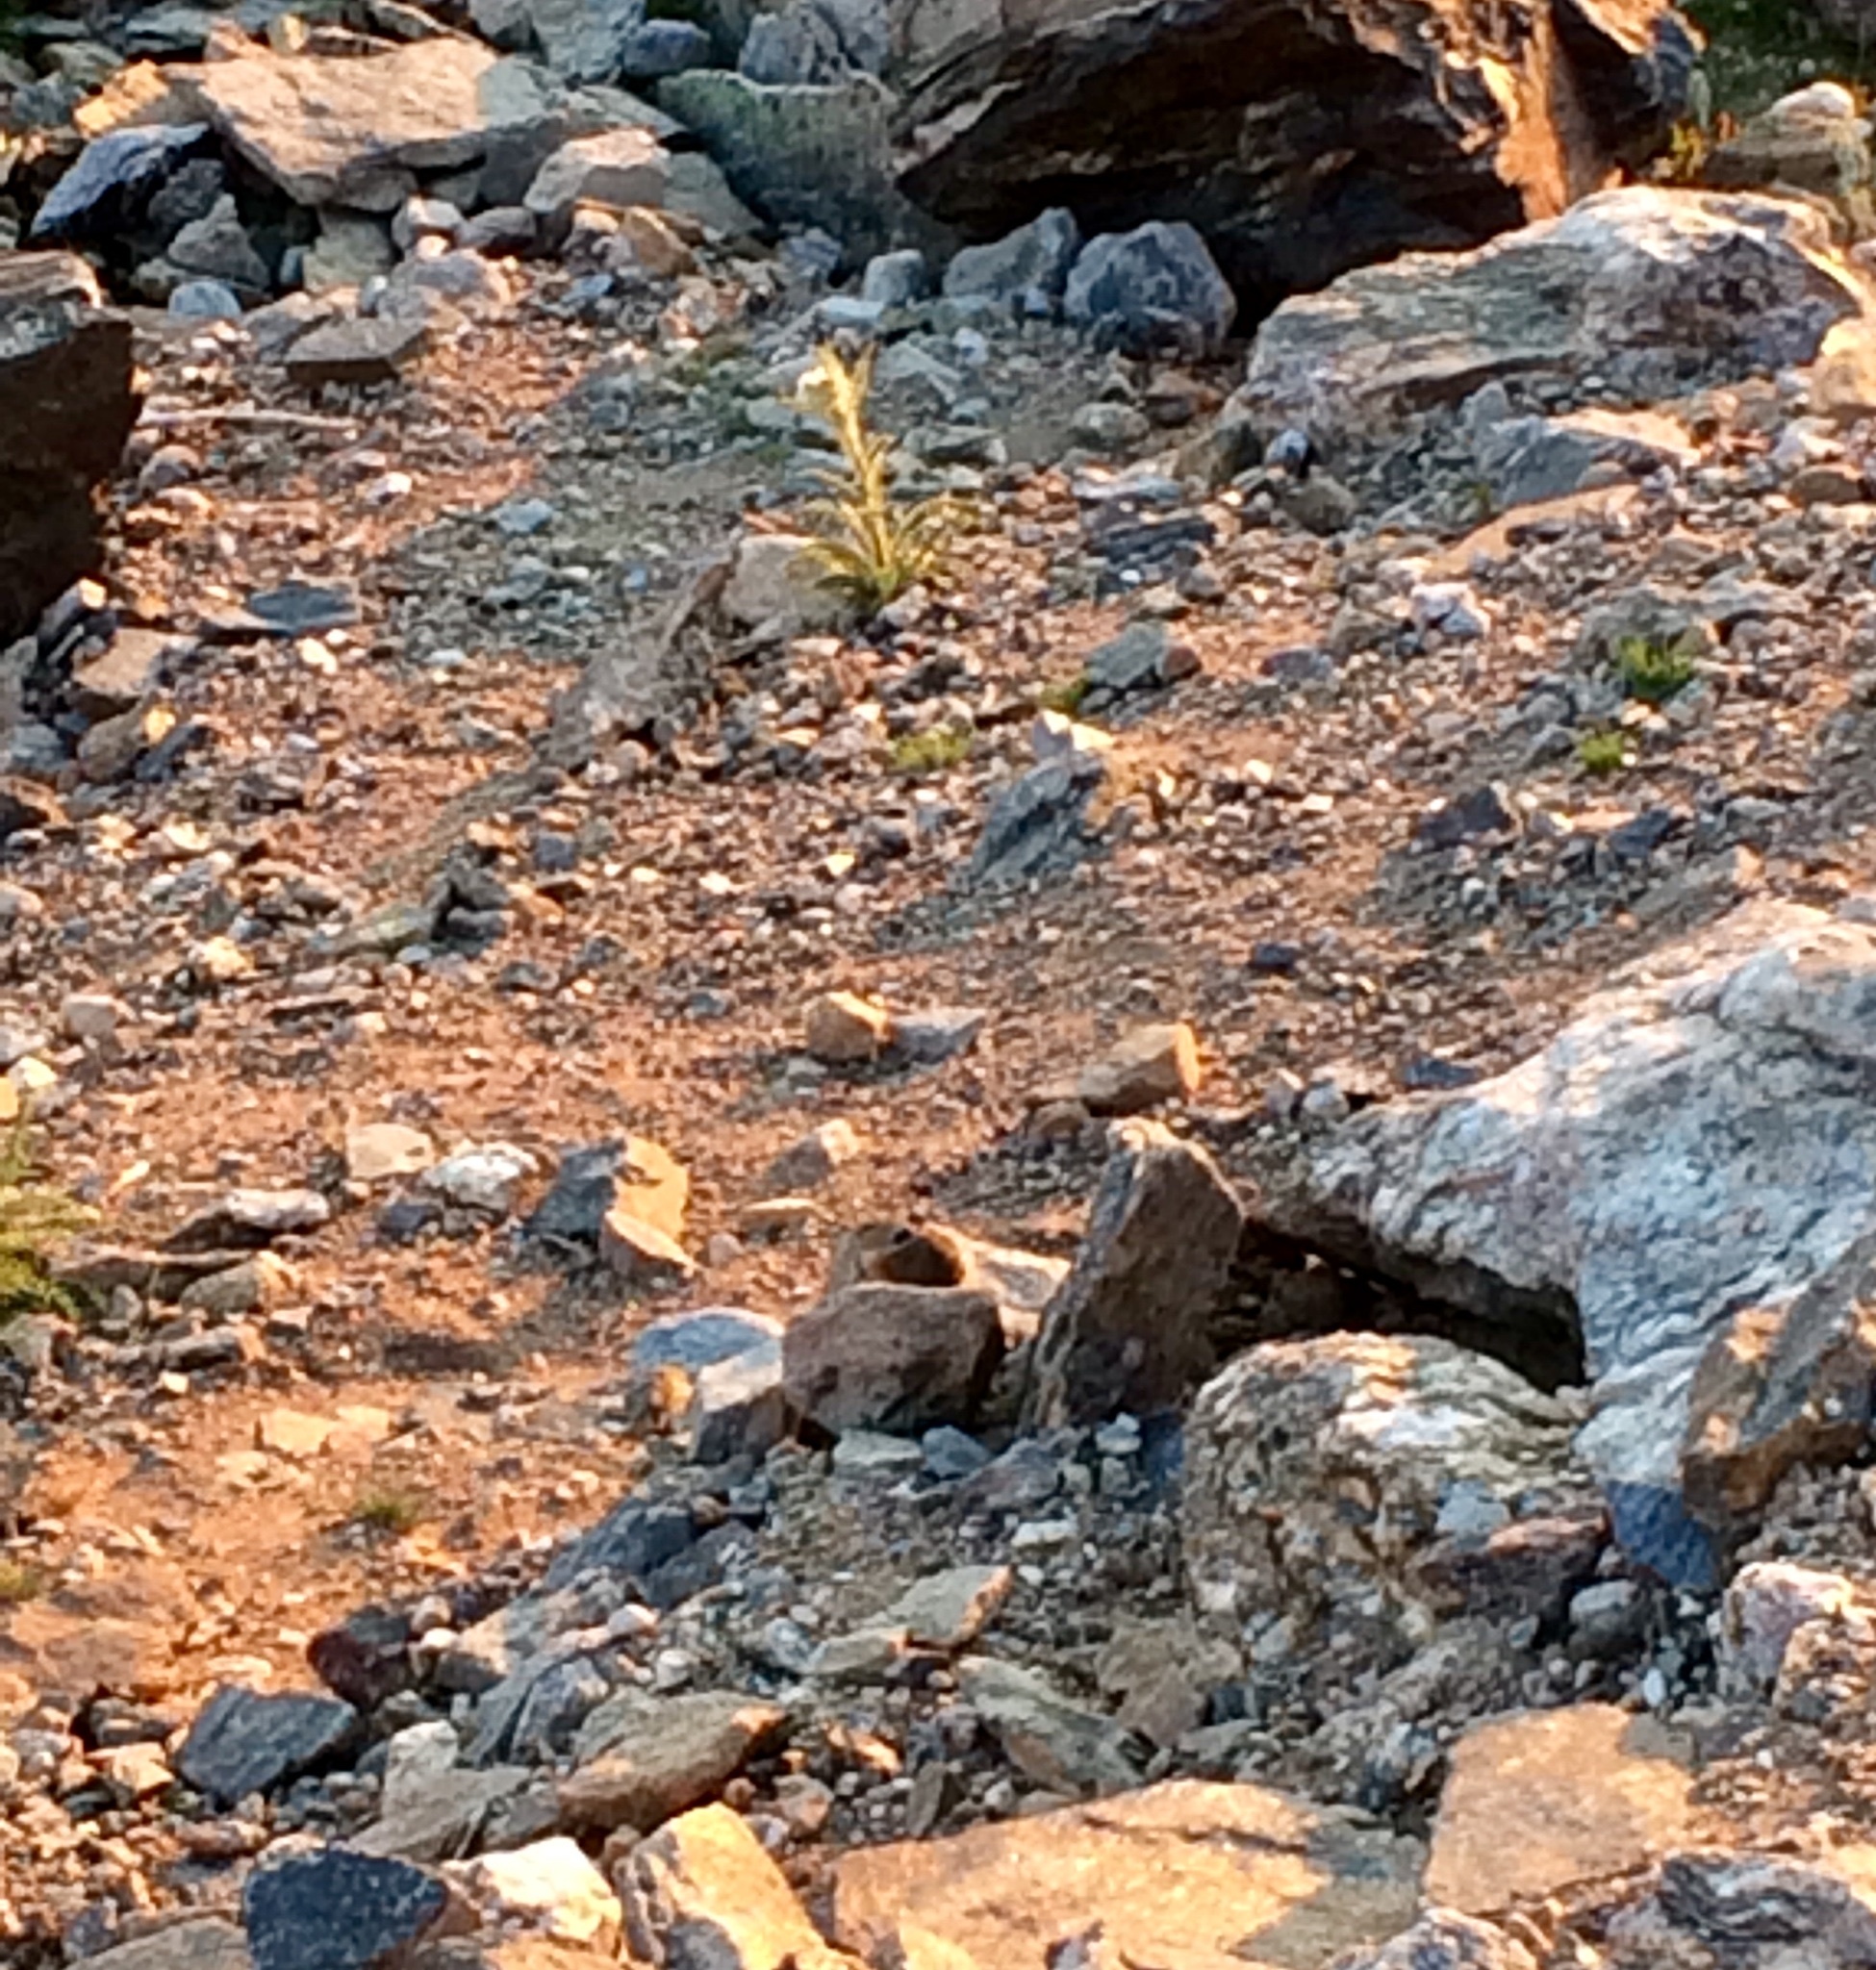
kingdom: Animalia
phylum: Chordata
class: Mammalia
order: Lagomorpha
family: Ochotonidae
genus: Ochotona
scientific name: Ochotona princeps
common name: American pika
